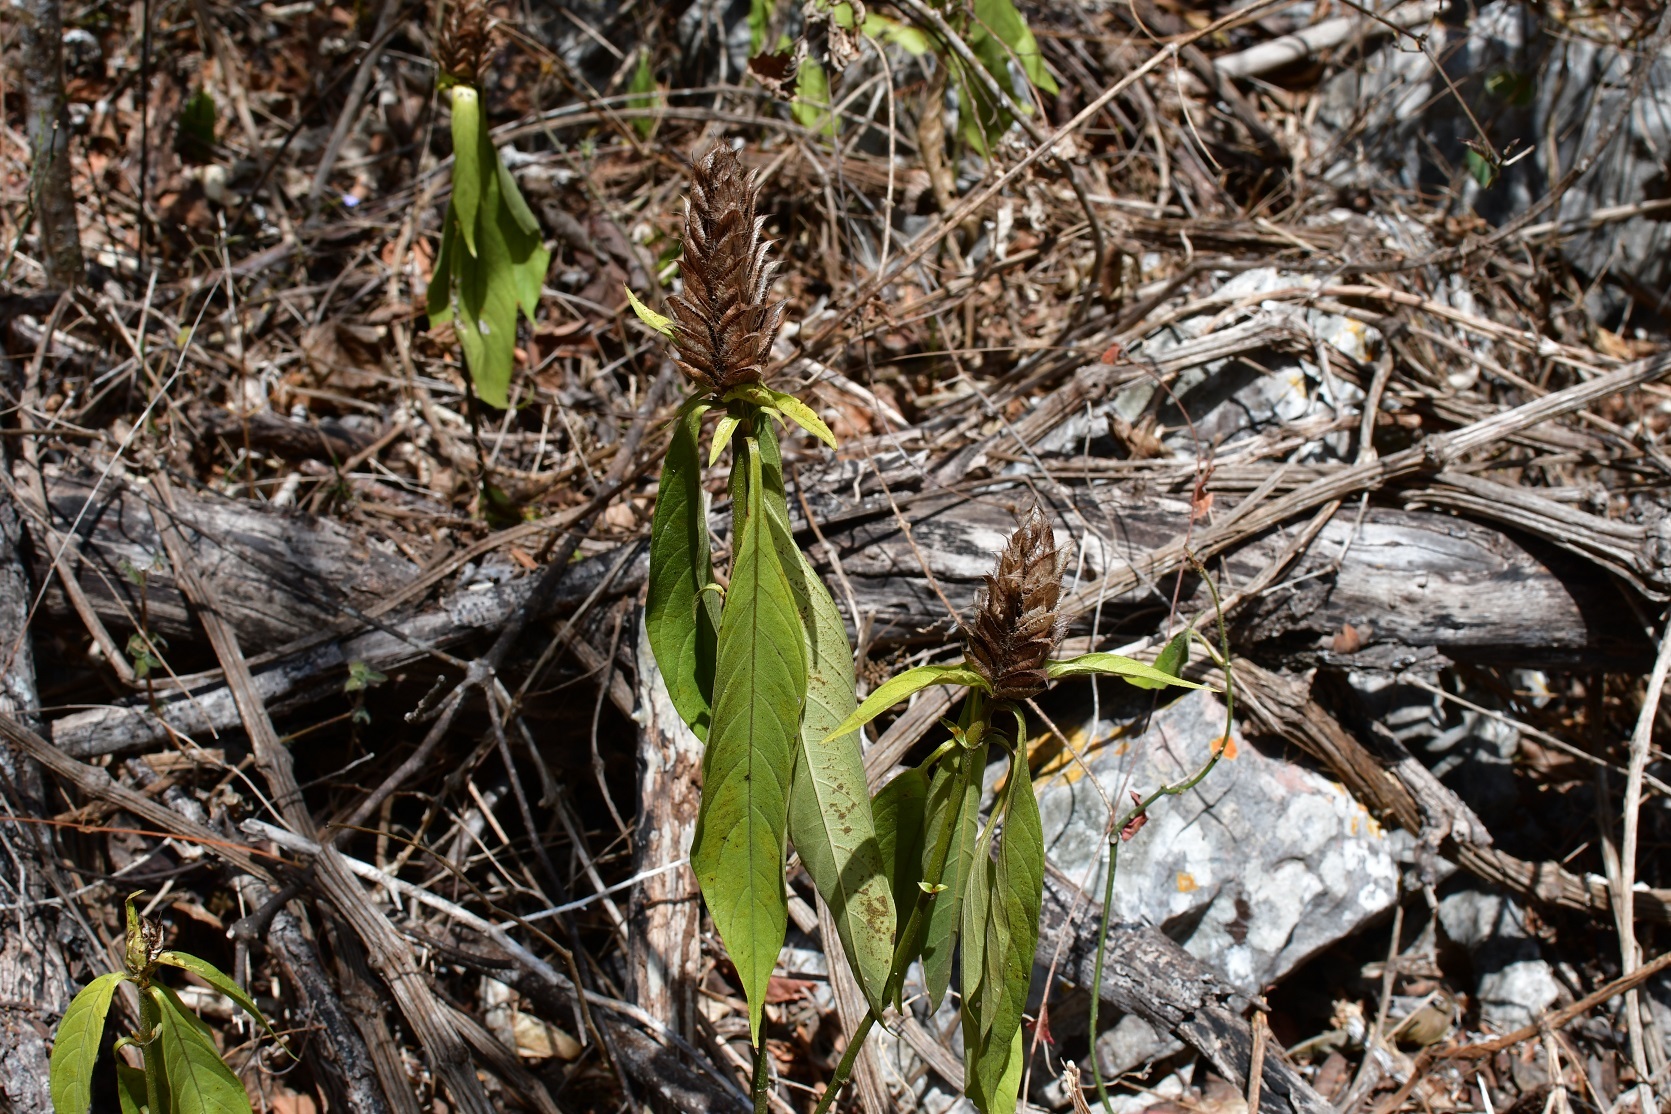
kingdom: Plantae
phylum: Tracheophyta
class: Magnoliopsida
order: Lamiales
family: Acanthaceae
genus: Barleria
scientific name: Barleria oenotheroides
